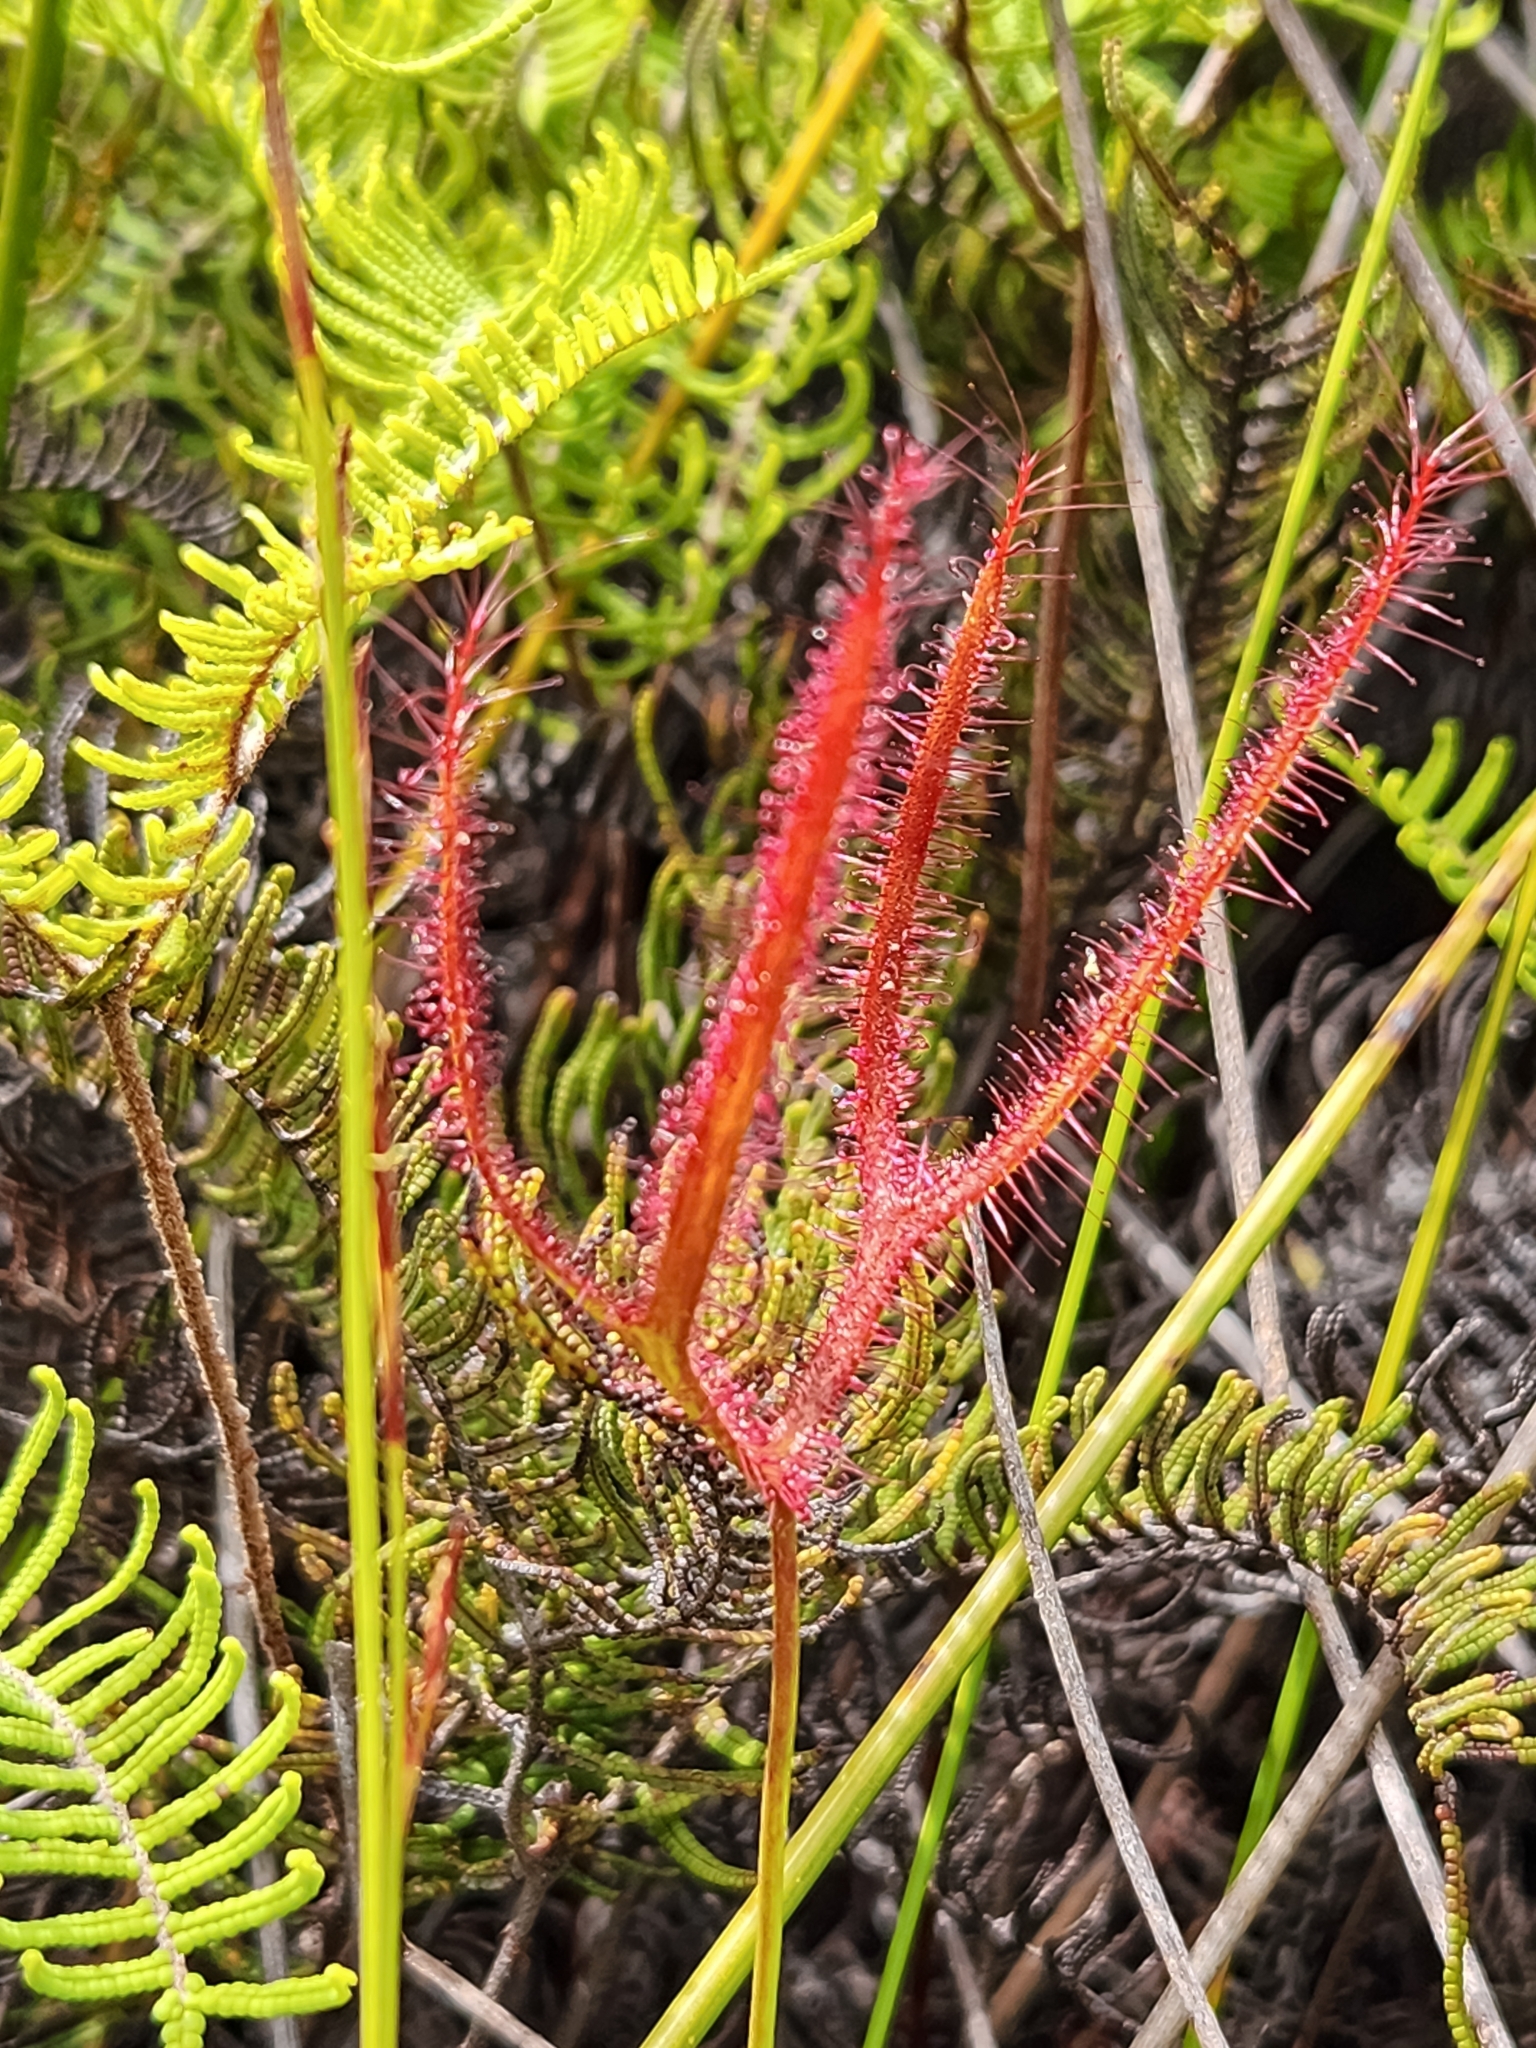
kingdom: Plantae
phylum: Tracheophyta
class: Magnoliopsida
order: Caryophyllales
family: Droseraceae
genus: Drosera
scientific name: Drosera binata
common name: Forked sundew
